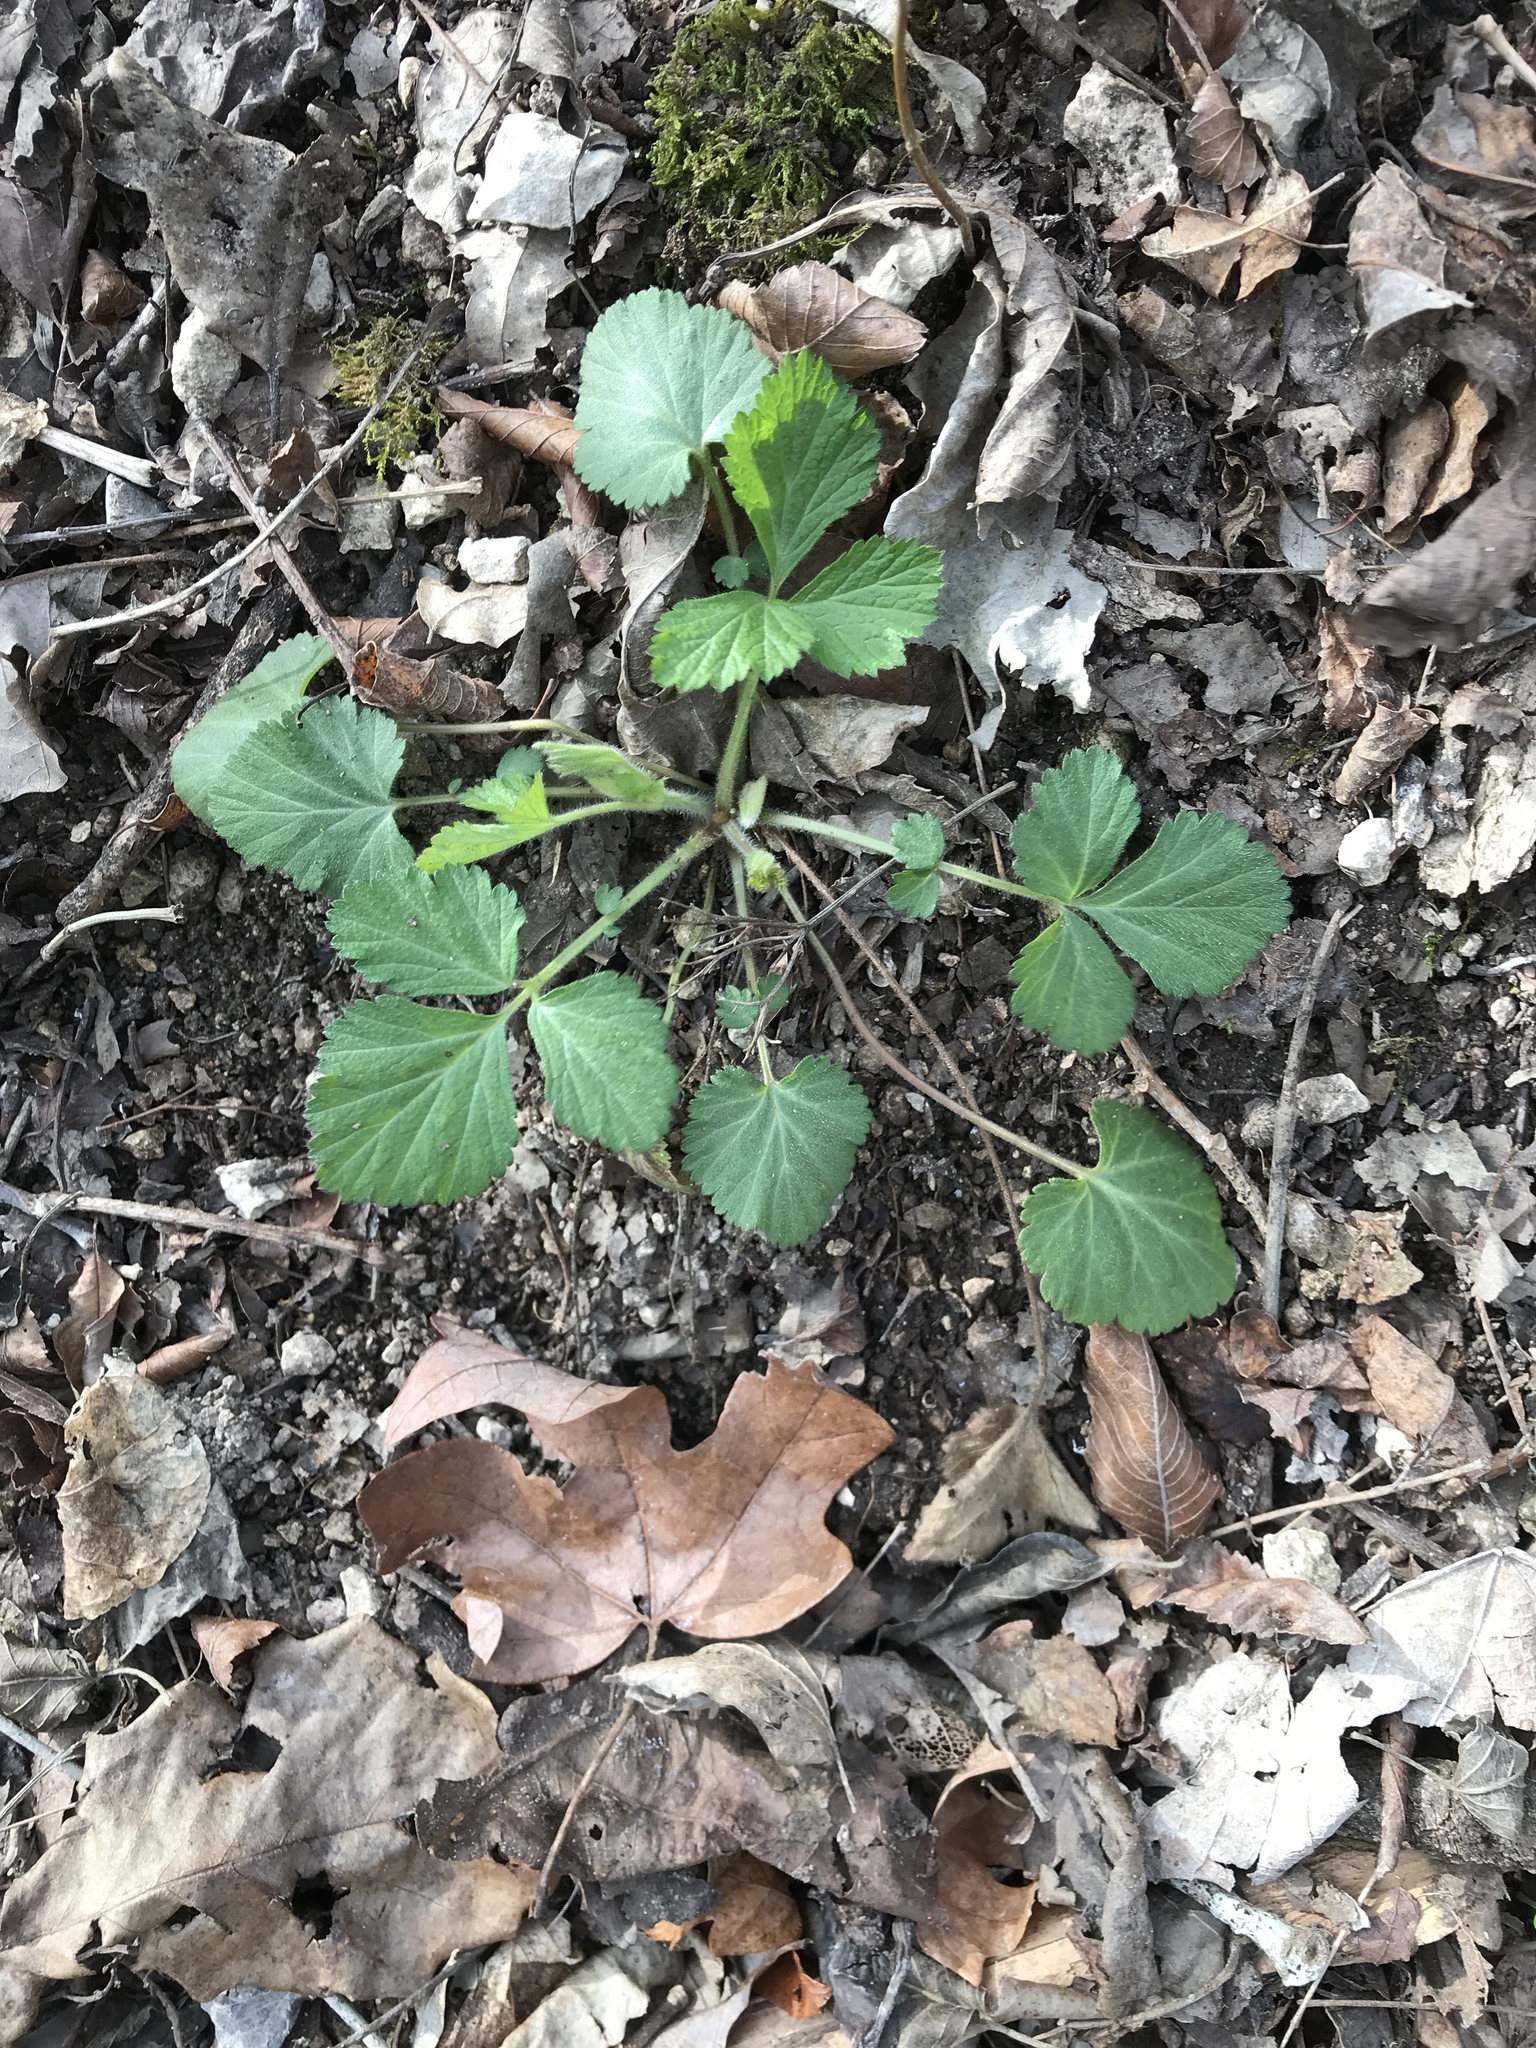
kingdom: Plantae
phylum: Tracheophyta
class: Magnoliopsida
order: Rosales
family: Rosaceae
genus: Geum
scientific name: Geum canadense
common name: White avens
